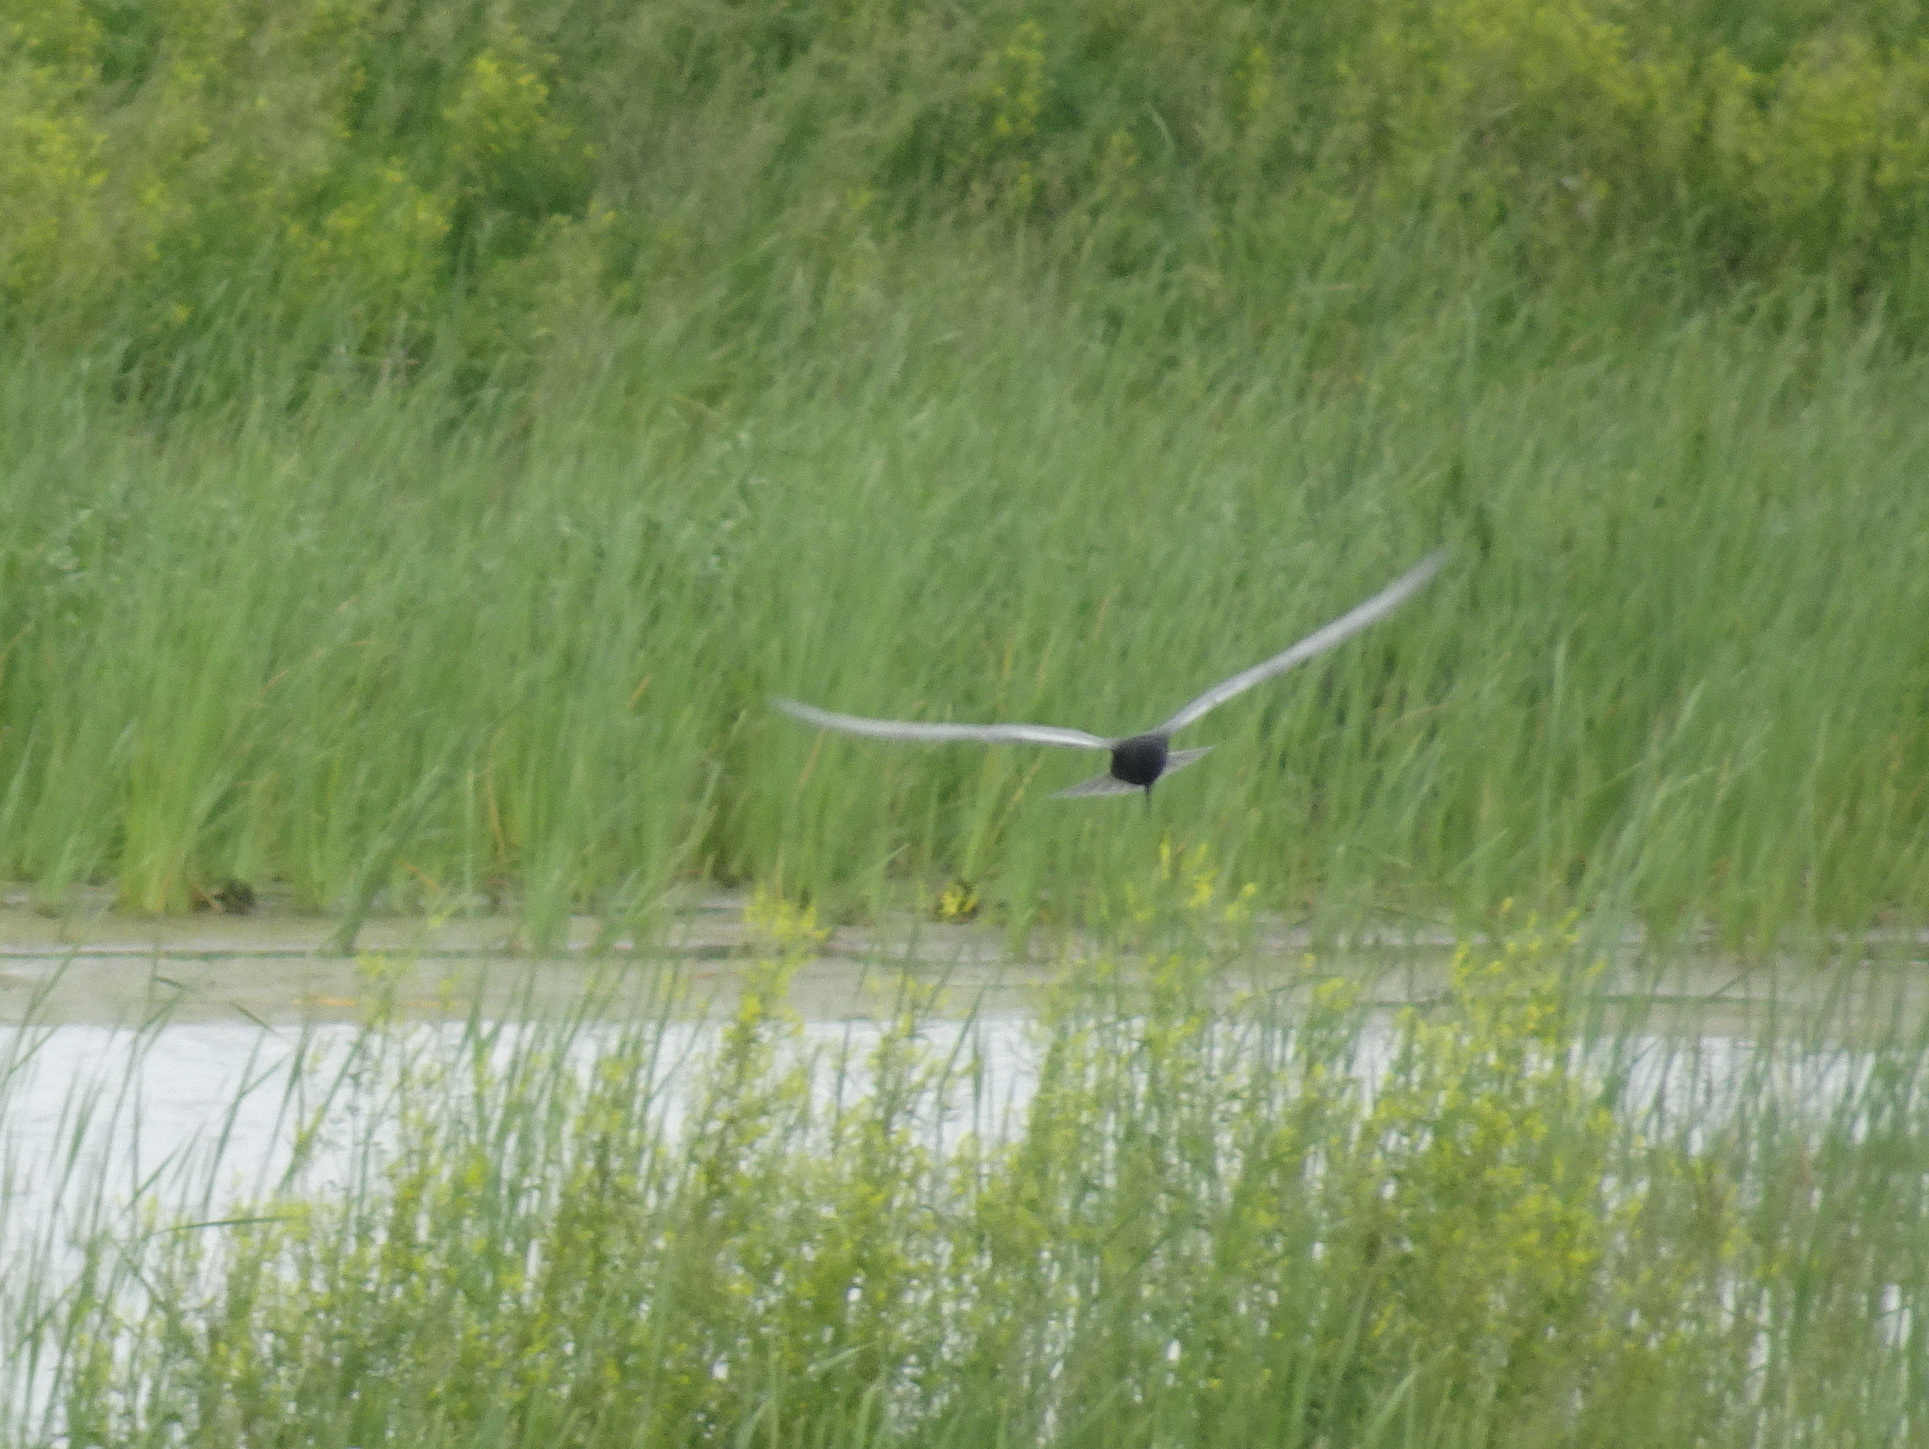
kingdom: Animalia
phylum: Chordata
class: Aves
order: Charadriiformes
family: Laridae
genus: Chlidonias
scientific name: Chlidonias niger
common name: Black tern
